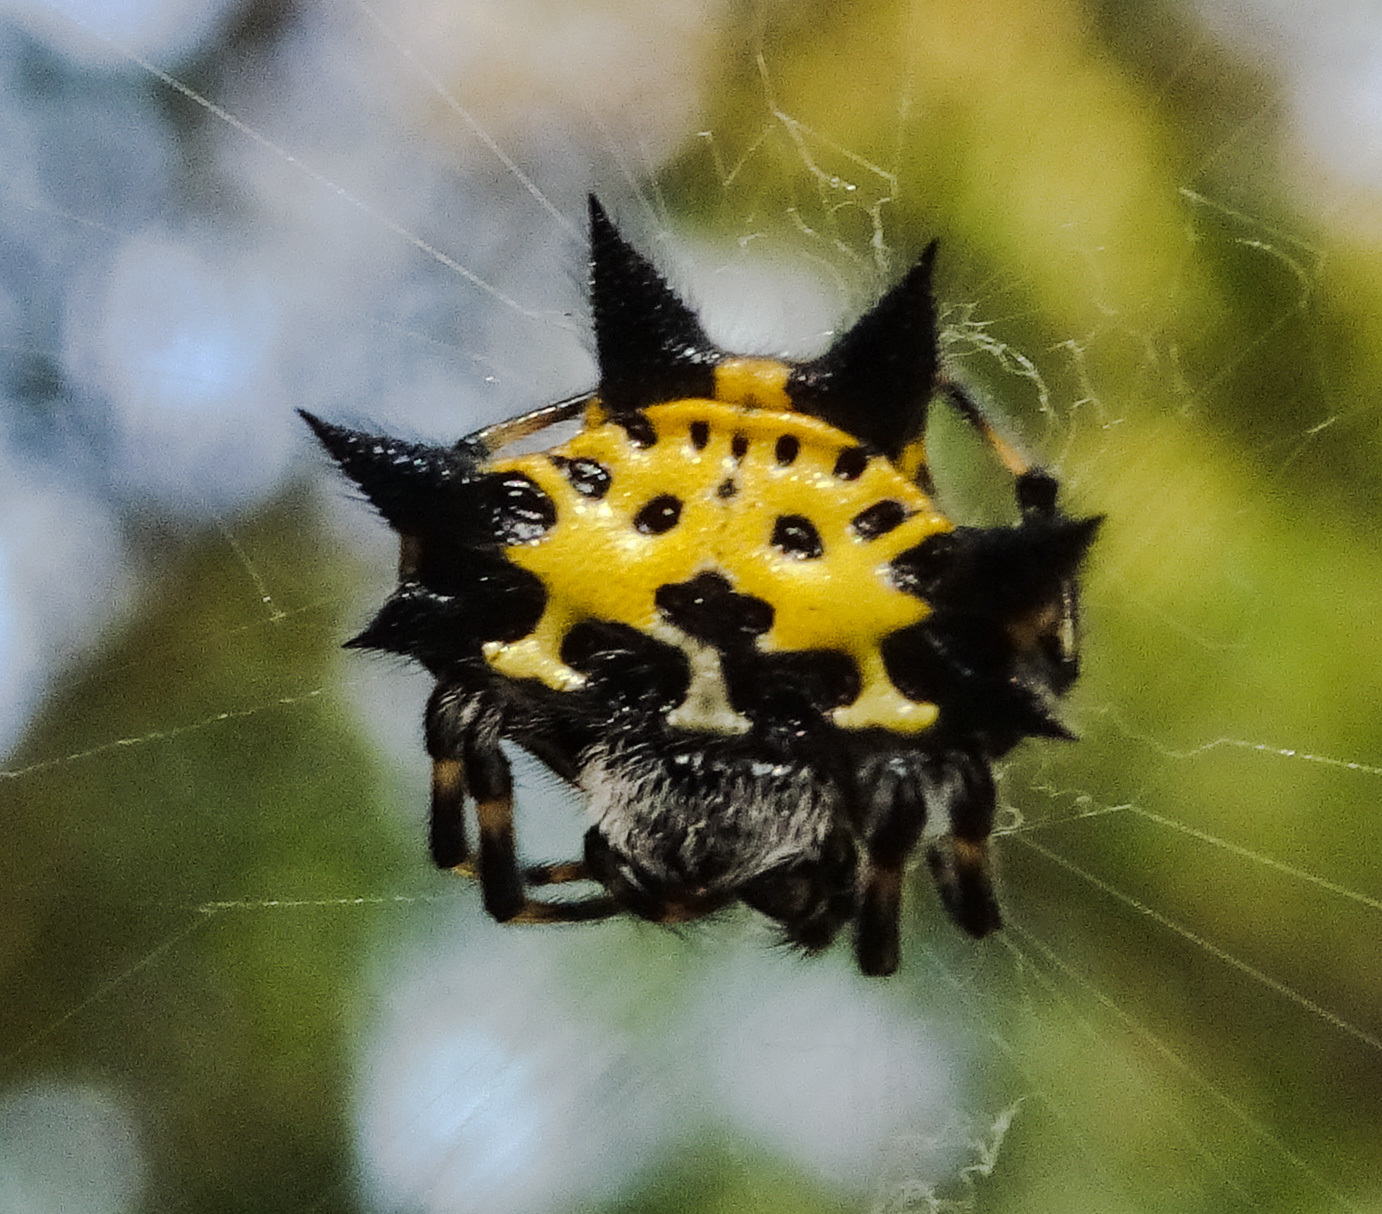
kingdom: Animalia
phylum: Arthropoda
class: Arachnida
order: Araneae
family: Araneidae
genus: Gasteracantha
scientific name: Gasteracantha kuhli
